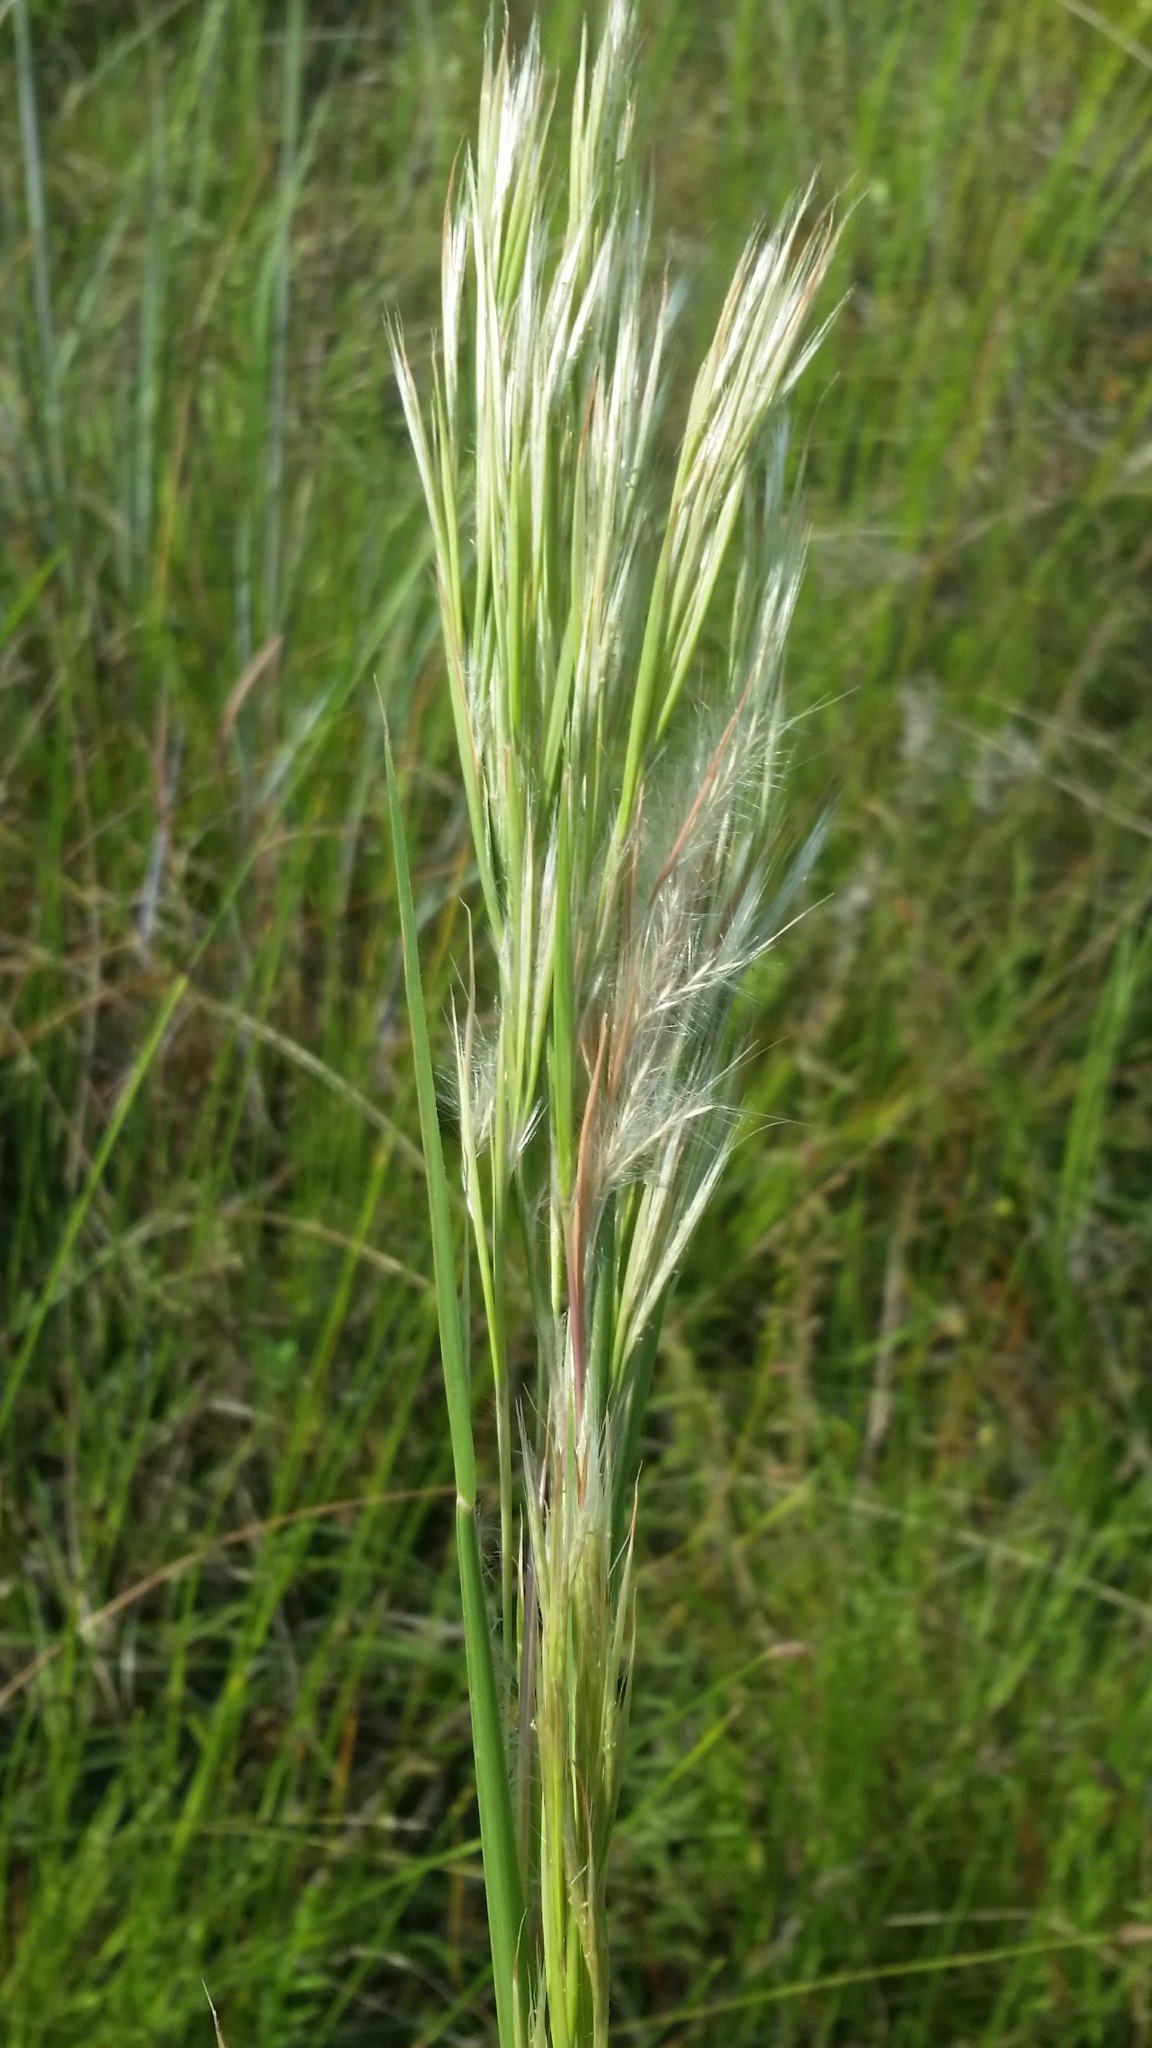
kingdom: Plantae
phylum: Tracheophyta
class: Liliopsida
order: Poales
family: Poaceae
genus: Andropogon
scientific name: Andropogon tenuispatheus
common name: Bushy bluestem
